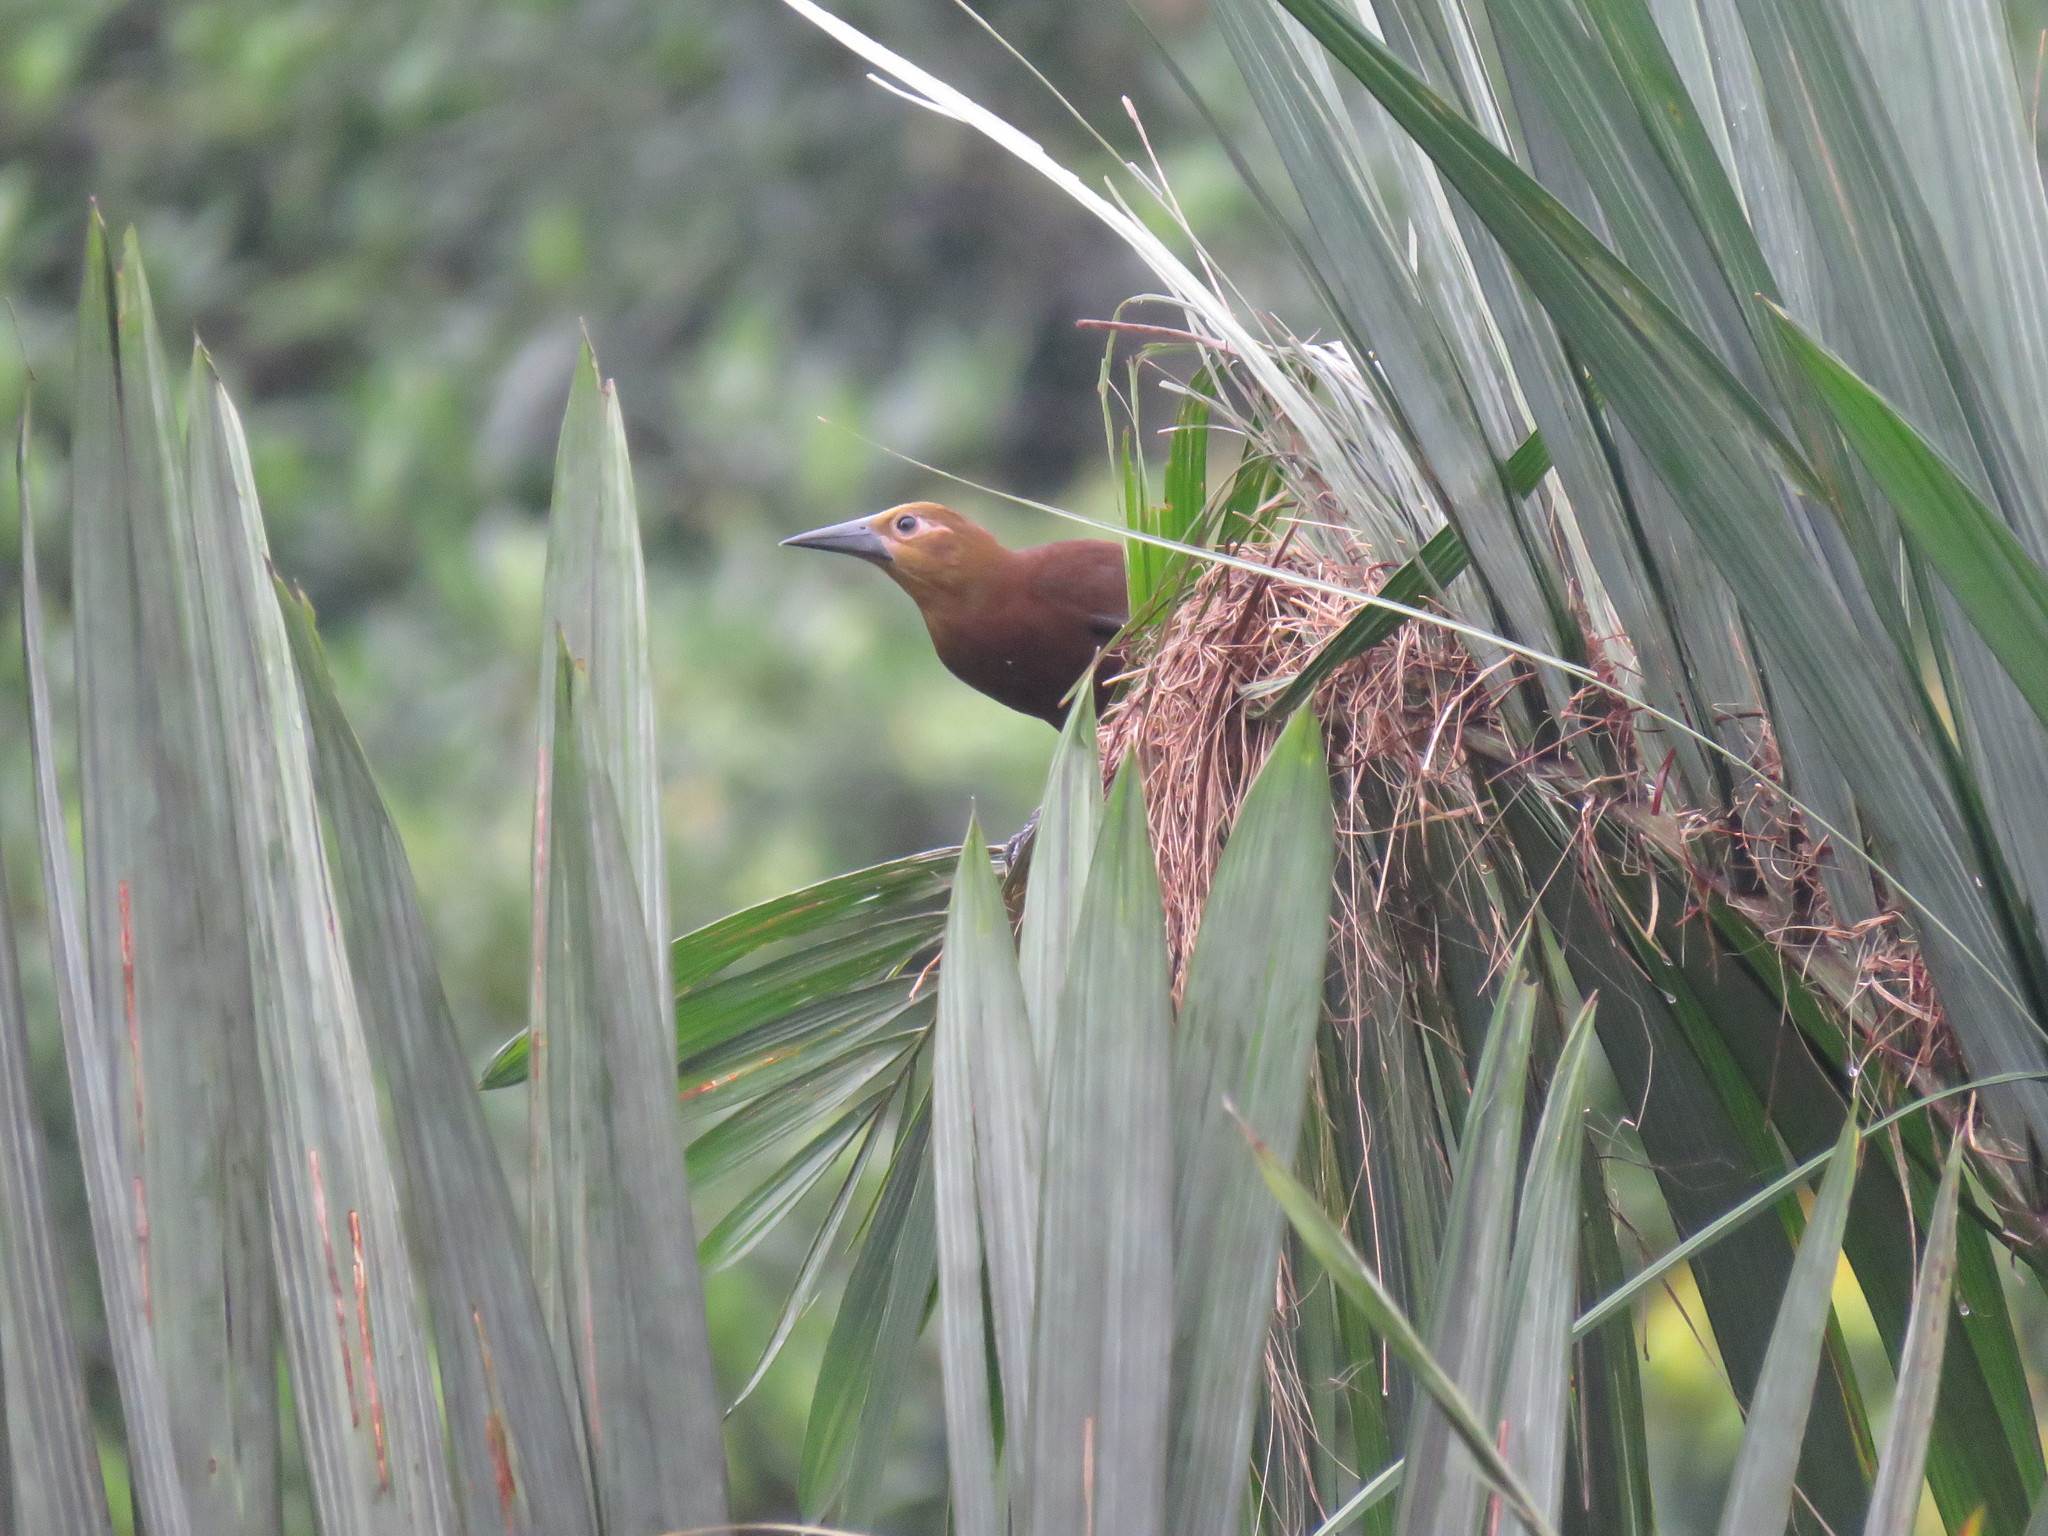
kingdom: Animalia
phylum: Chordata
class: Aves
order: Passeriformes
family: Icteridae
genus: Psarocolius
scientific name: Psarocolius angustifrons
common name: Russet-backed oropendola
